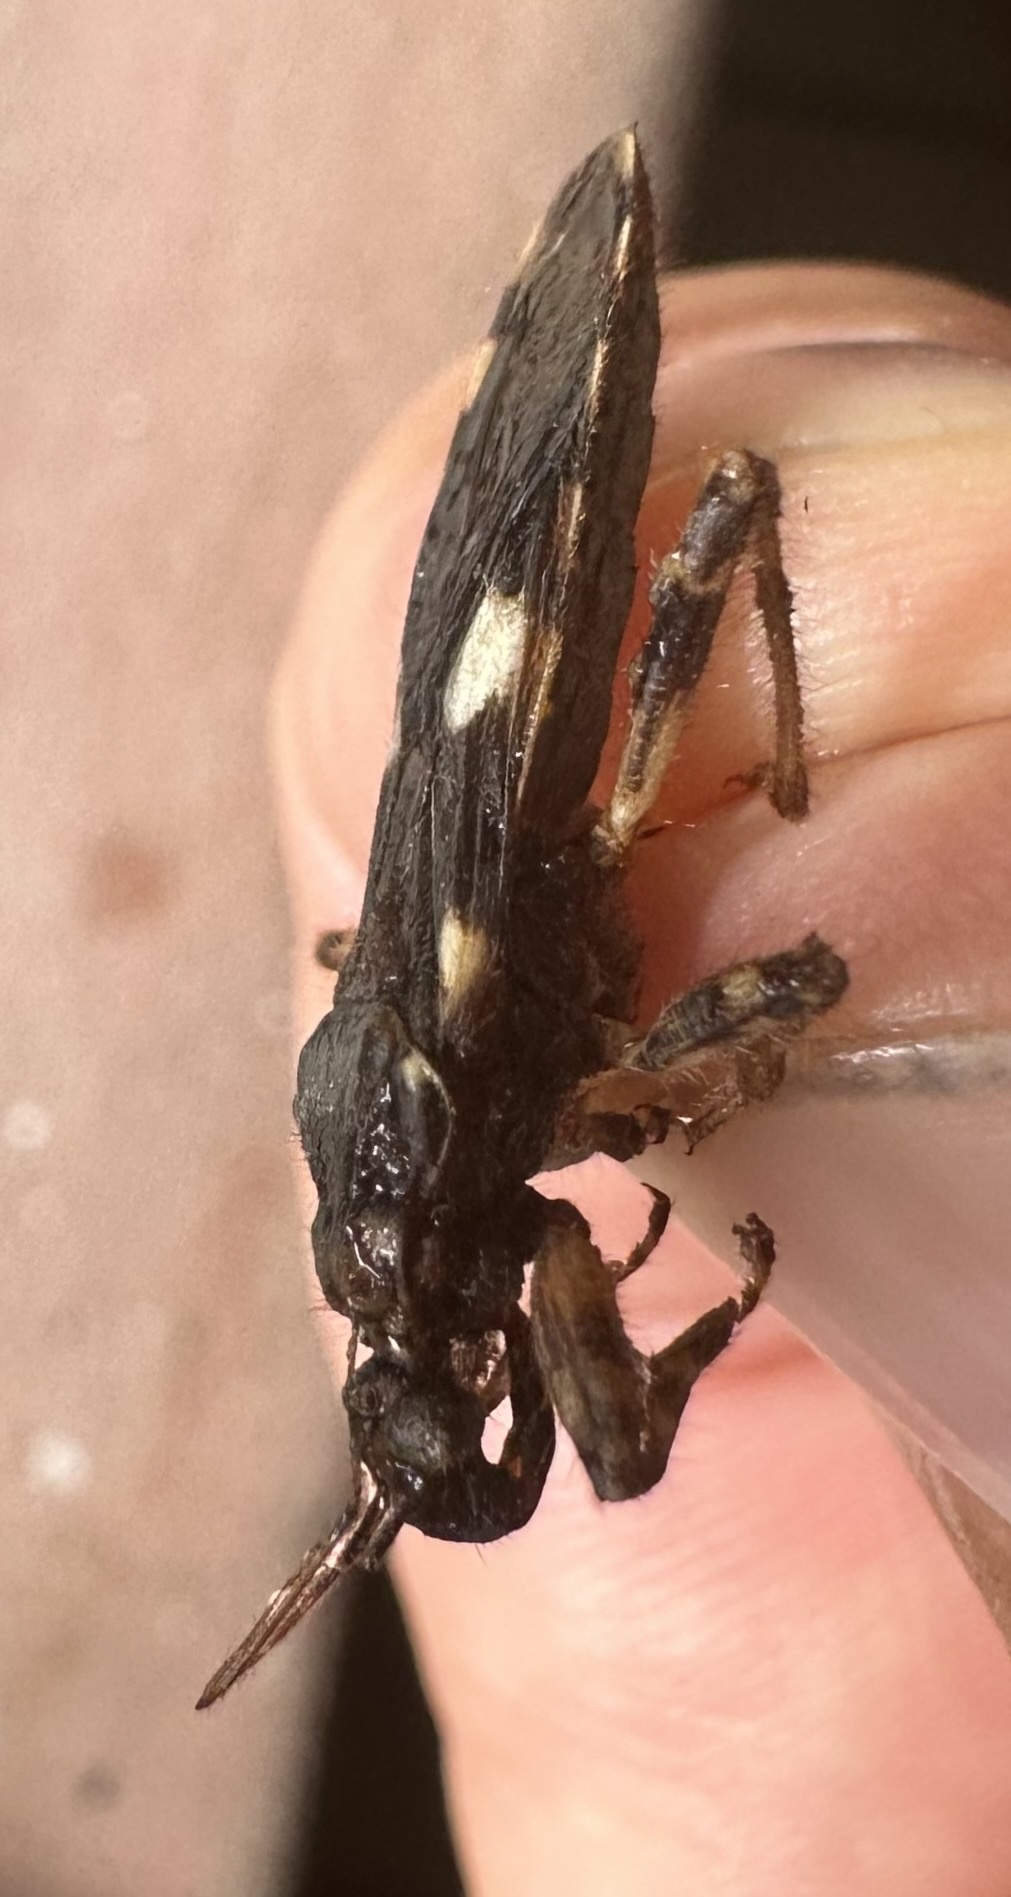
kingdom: Animalia
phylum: Arthropoda
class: Insecta
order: Hemiptera
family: Reduviidae
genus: Varus
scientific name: Varus flavoannulatus
